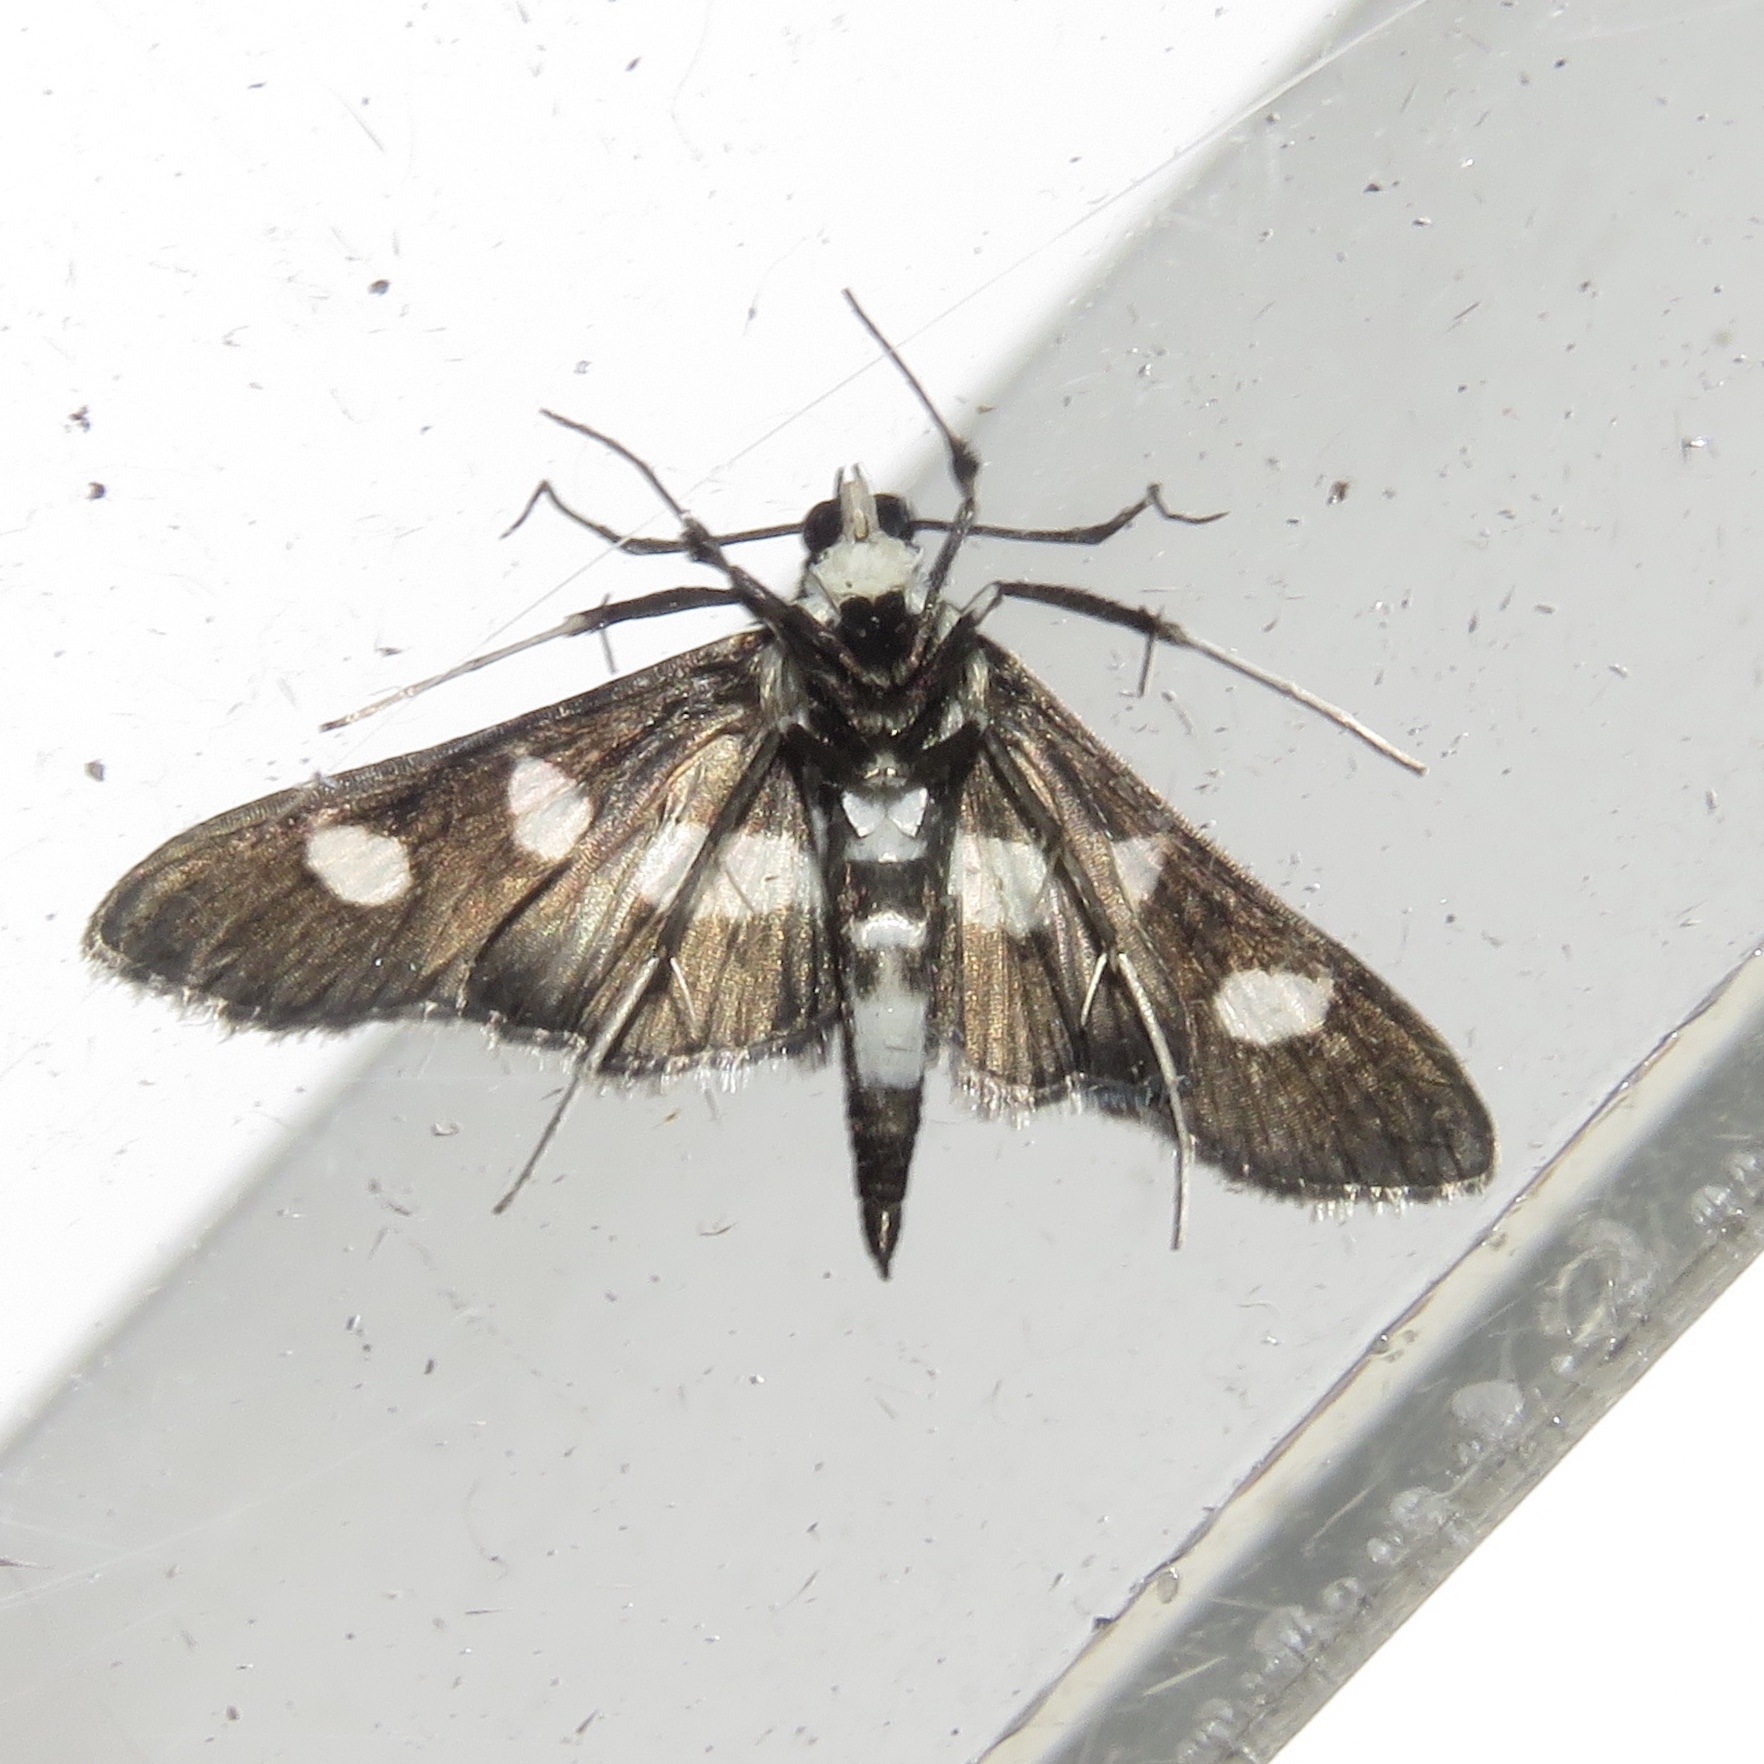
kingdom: Animalia
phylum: Arthropoda
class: Insecta
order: Lepidoptera
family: Crambidae
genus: Desmia
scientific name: Desmia funeralis
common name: Grape leaf folder moth
